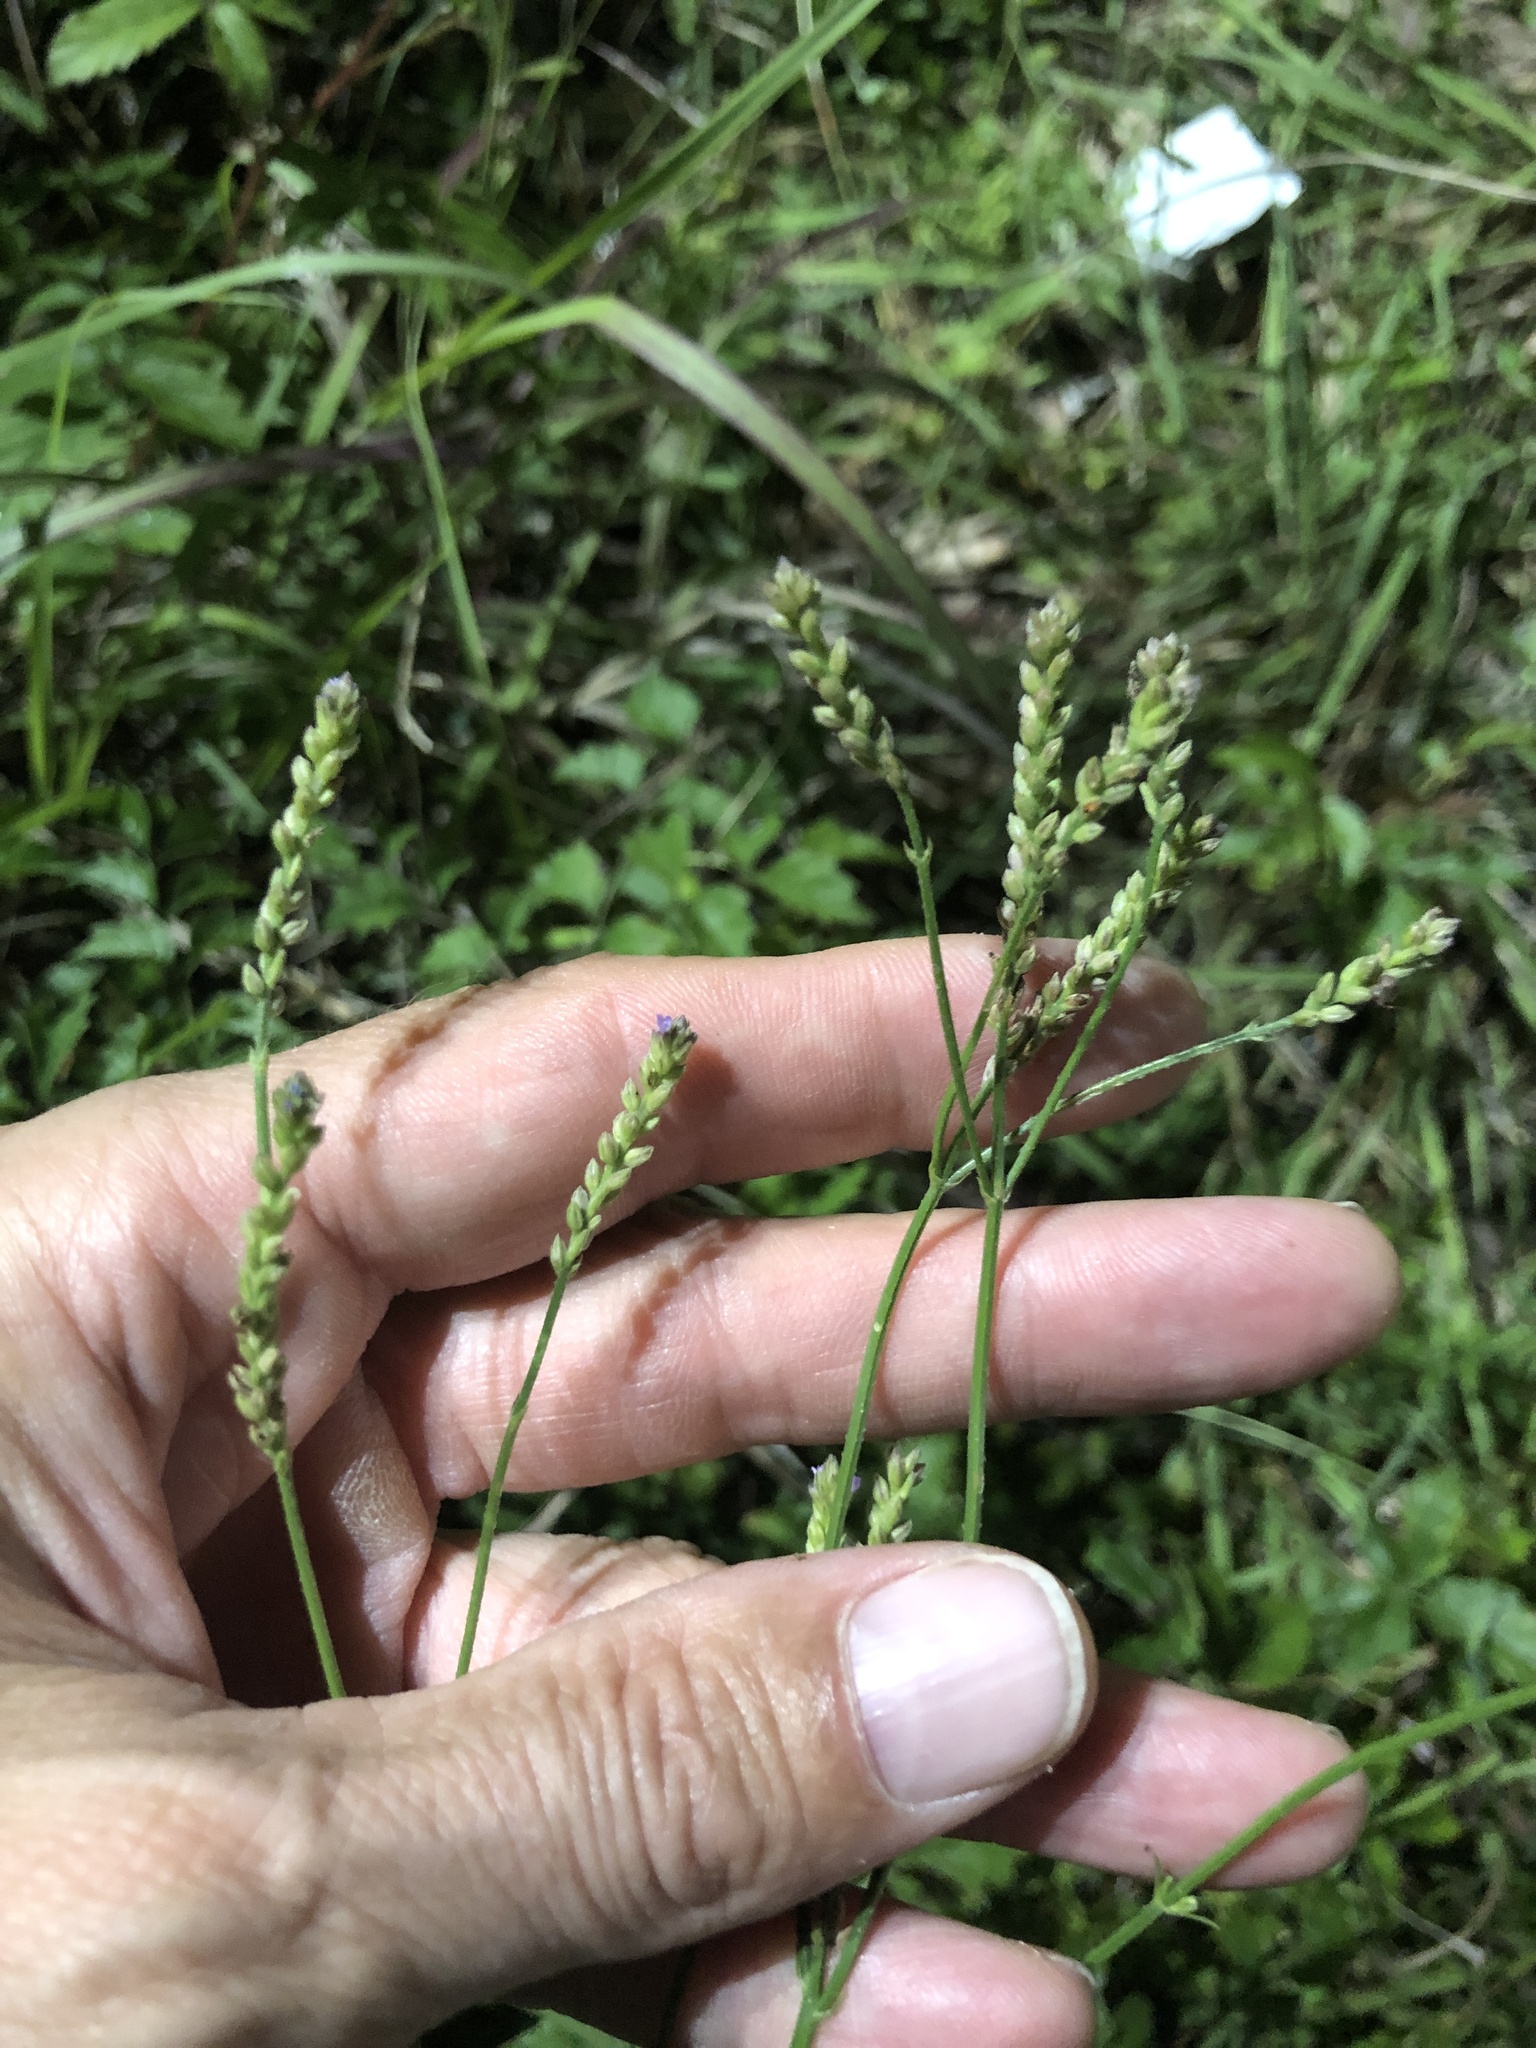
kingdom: Plantae
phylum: Tracheophyta
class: Magnoliopsida
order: Lamiales
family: Verbenaceae
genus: Verbena
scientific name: Verbena brasiliensis
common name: Brazilian vervain
